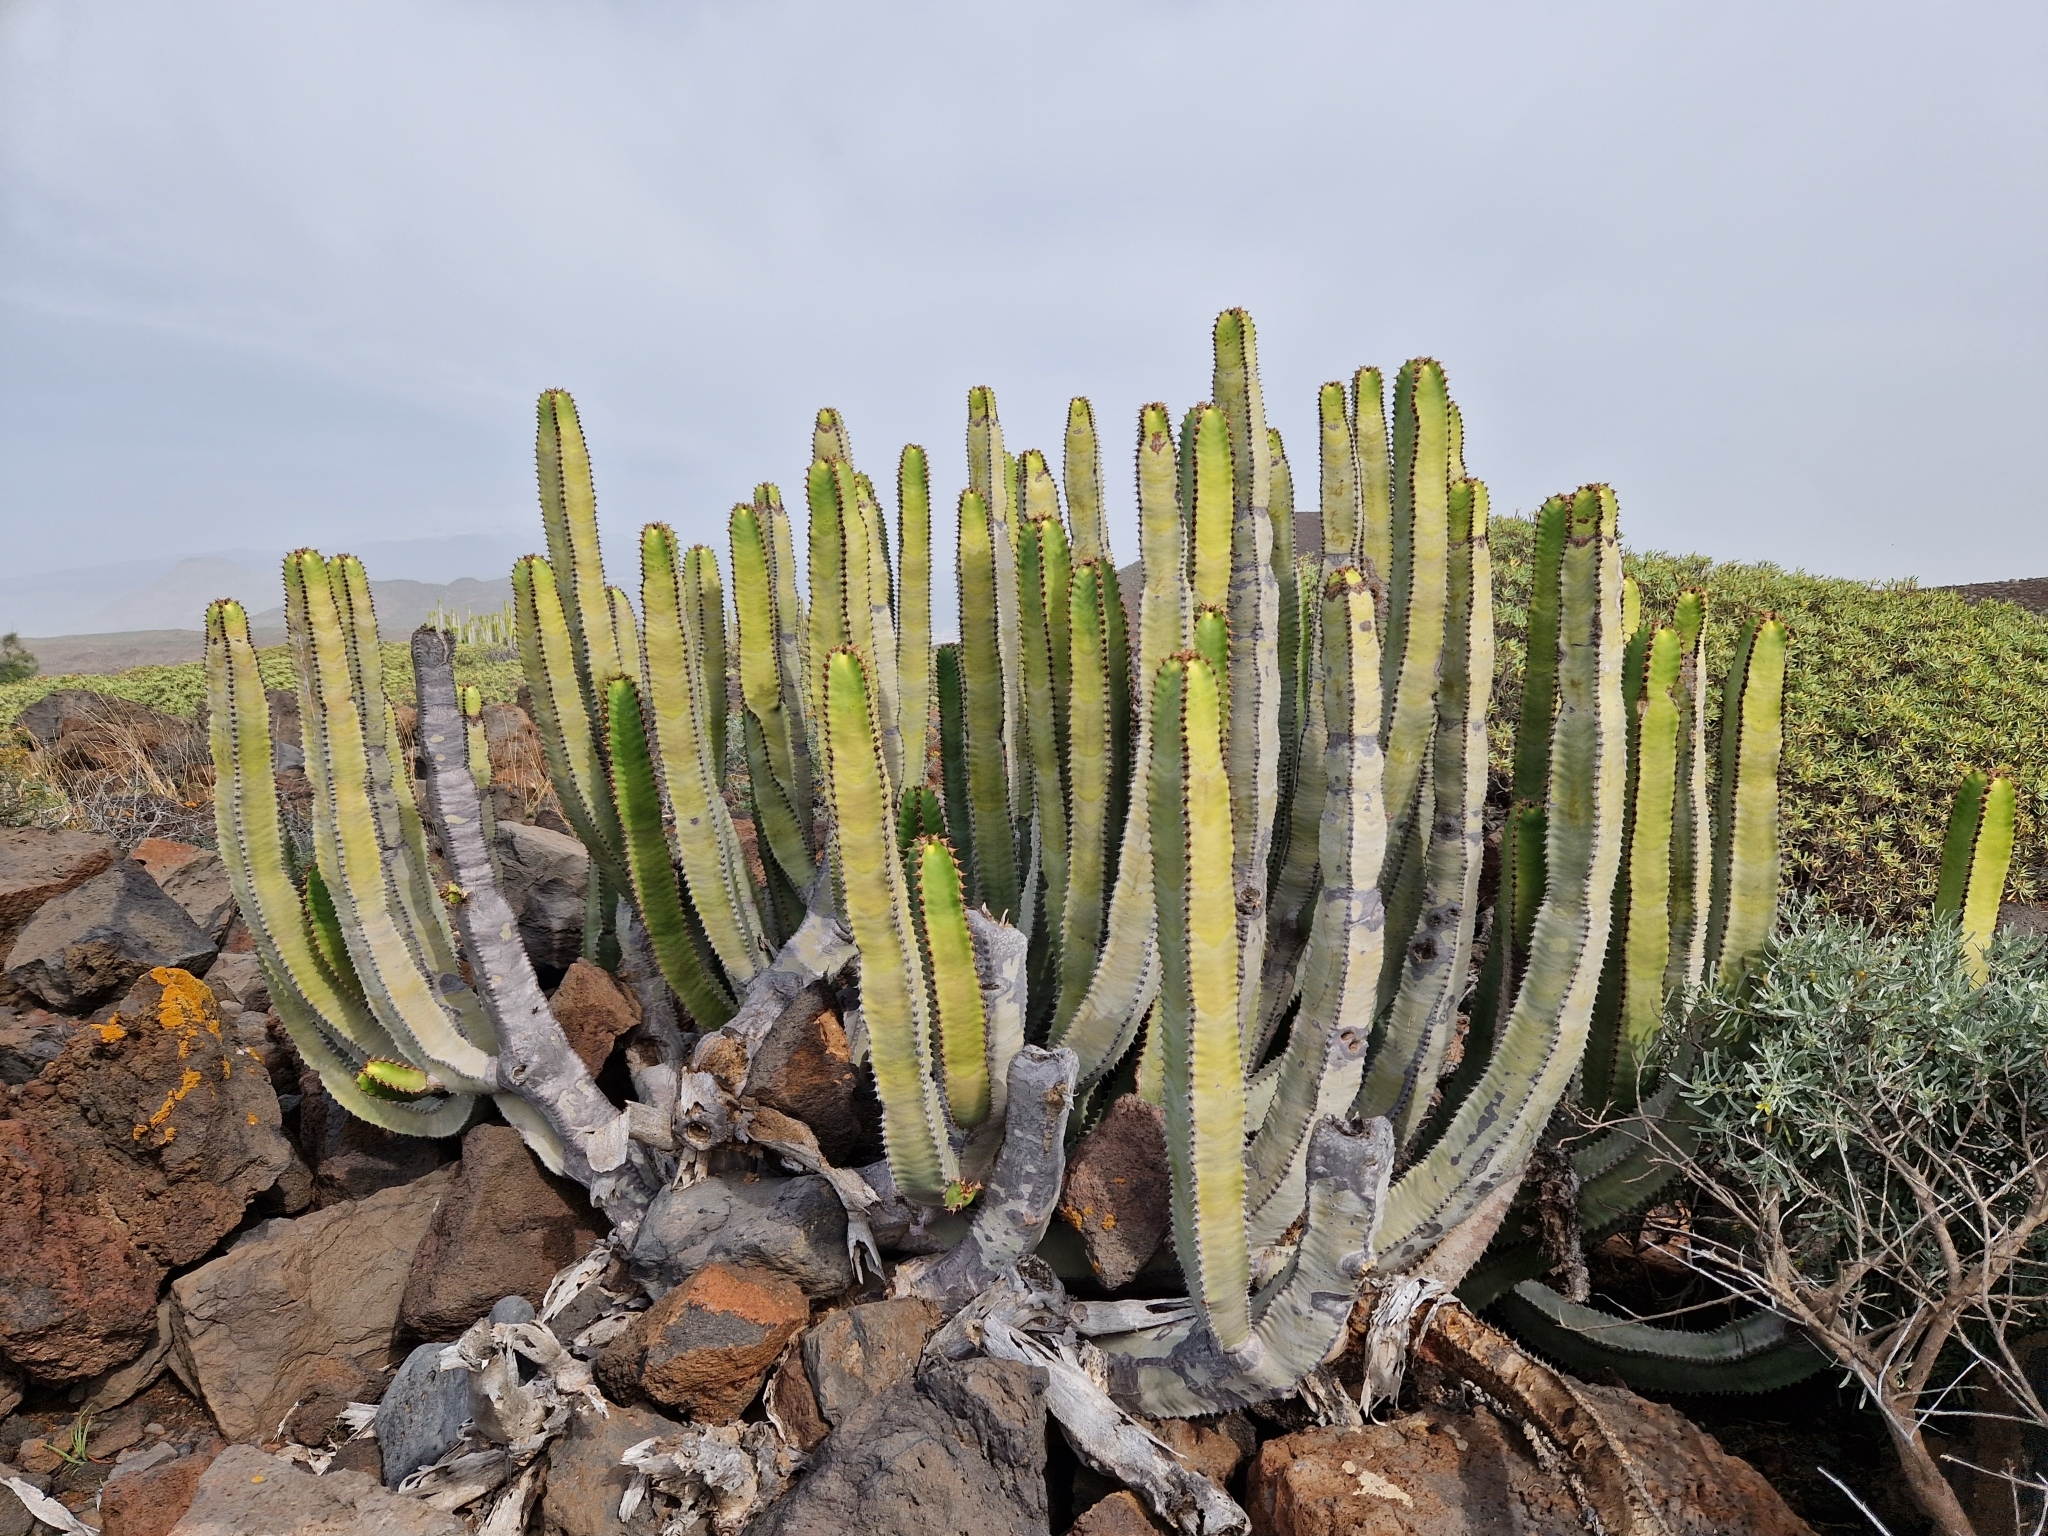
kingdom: Plantae
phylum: Tracheophyta
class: Magnoliopsida
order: Malpighiales
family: Euphorbiaceae
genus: Euphorbia
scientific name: Euphorbia canariensis
